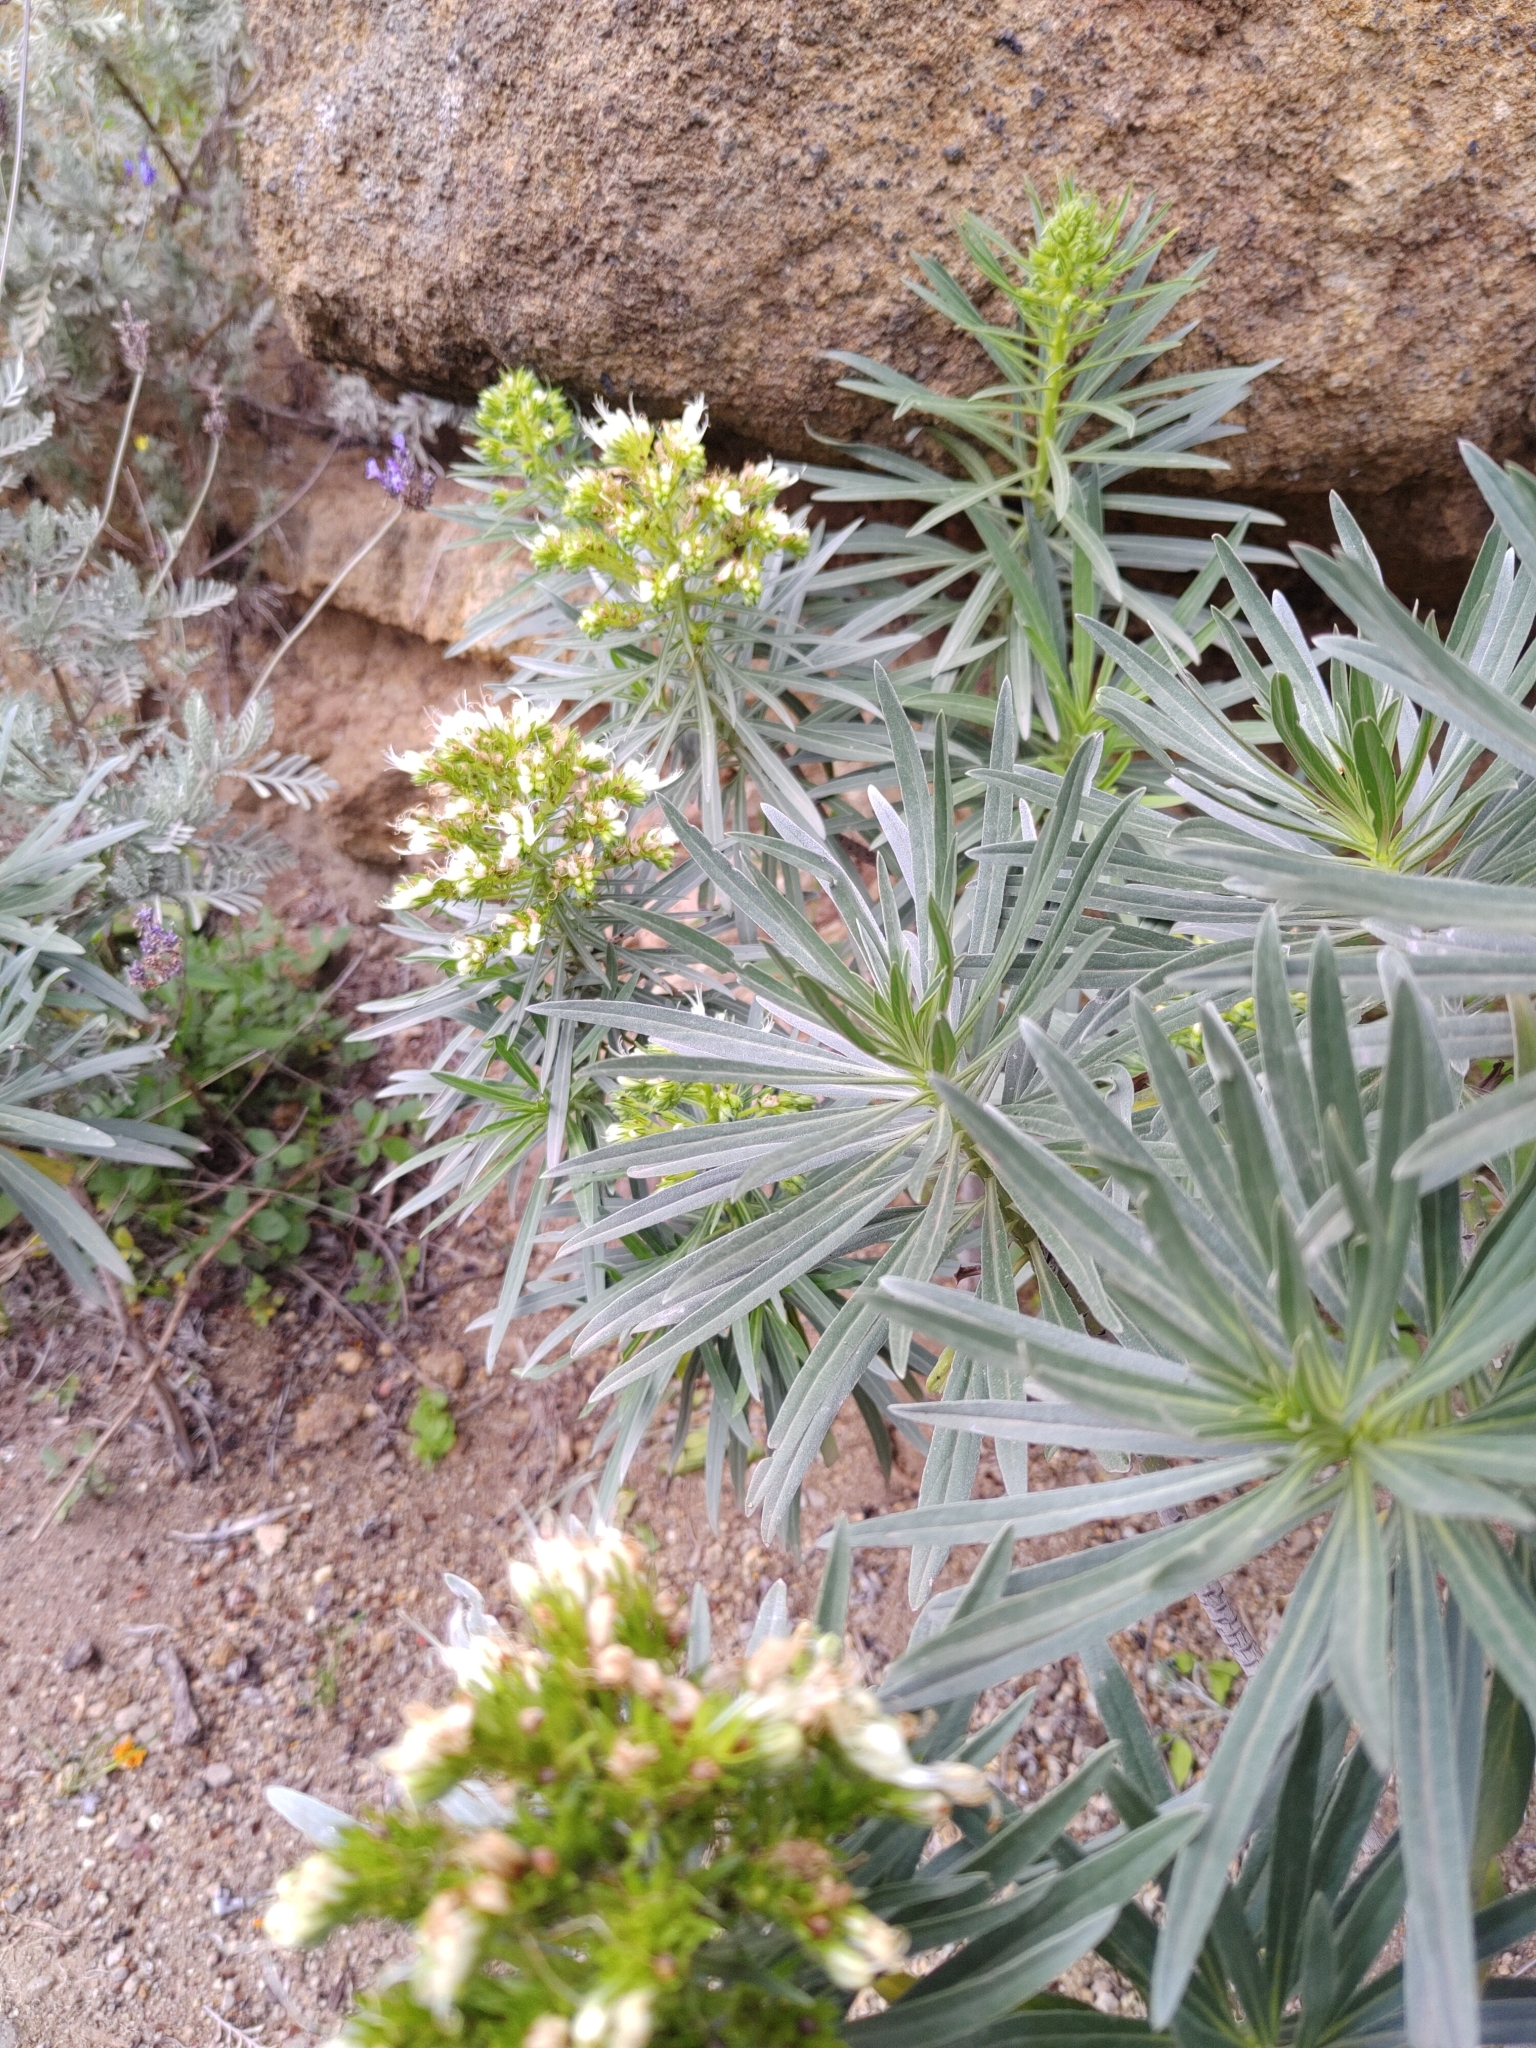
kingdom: Plantae
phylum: Tracheophyta
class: Magnoliopsida
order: Boraginales
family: Boraginaceae
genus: Echium
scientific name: Echium leucophaeum
